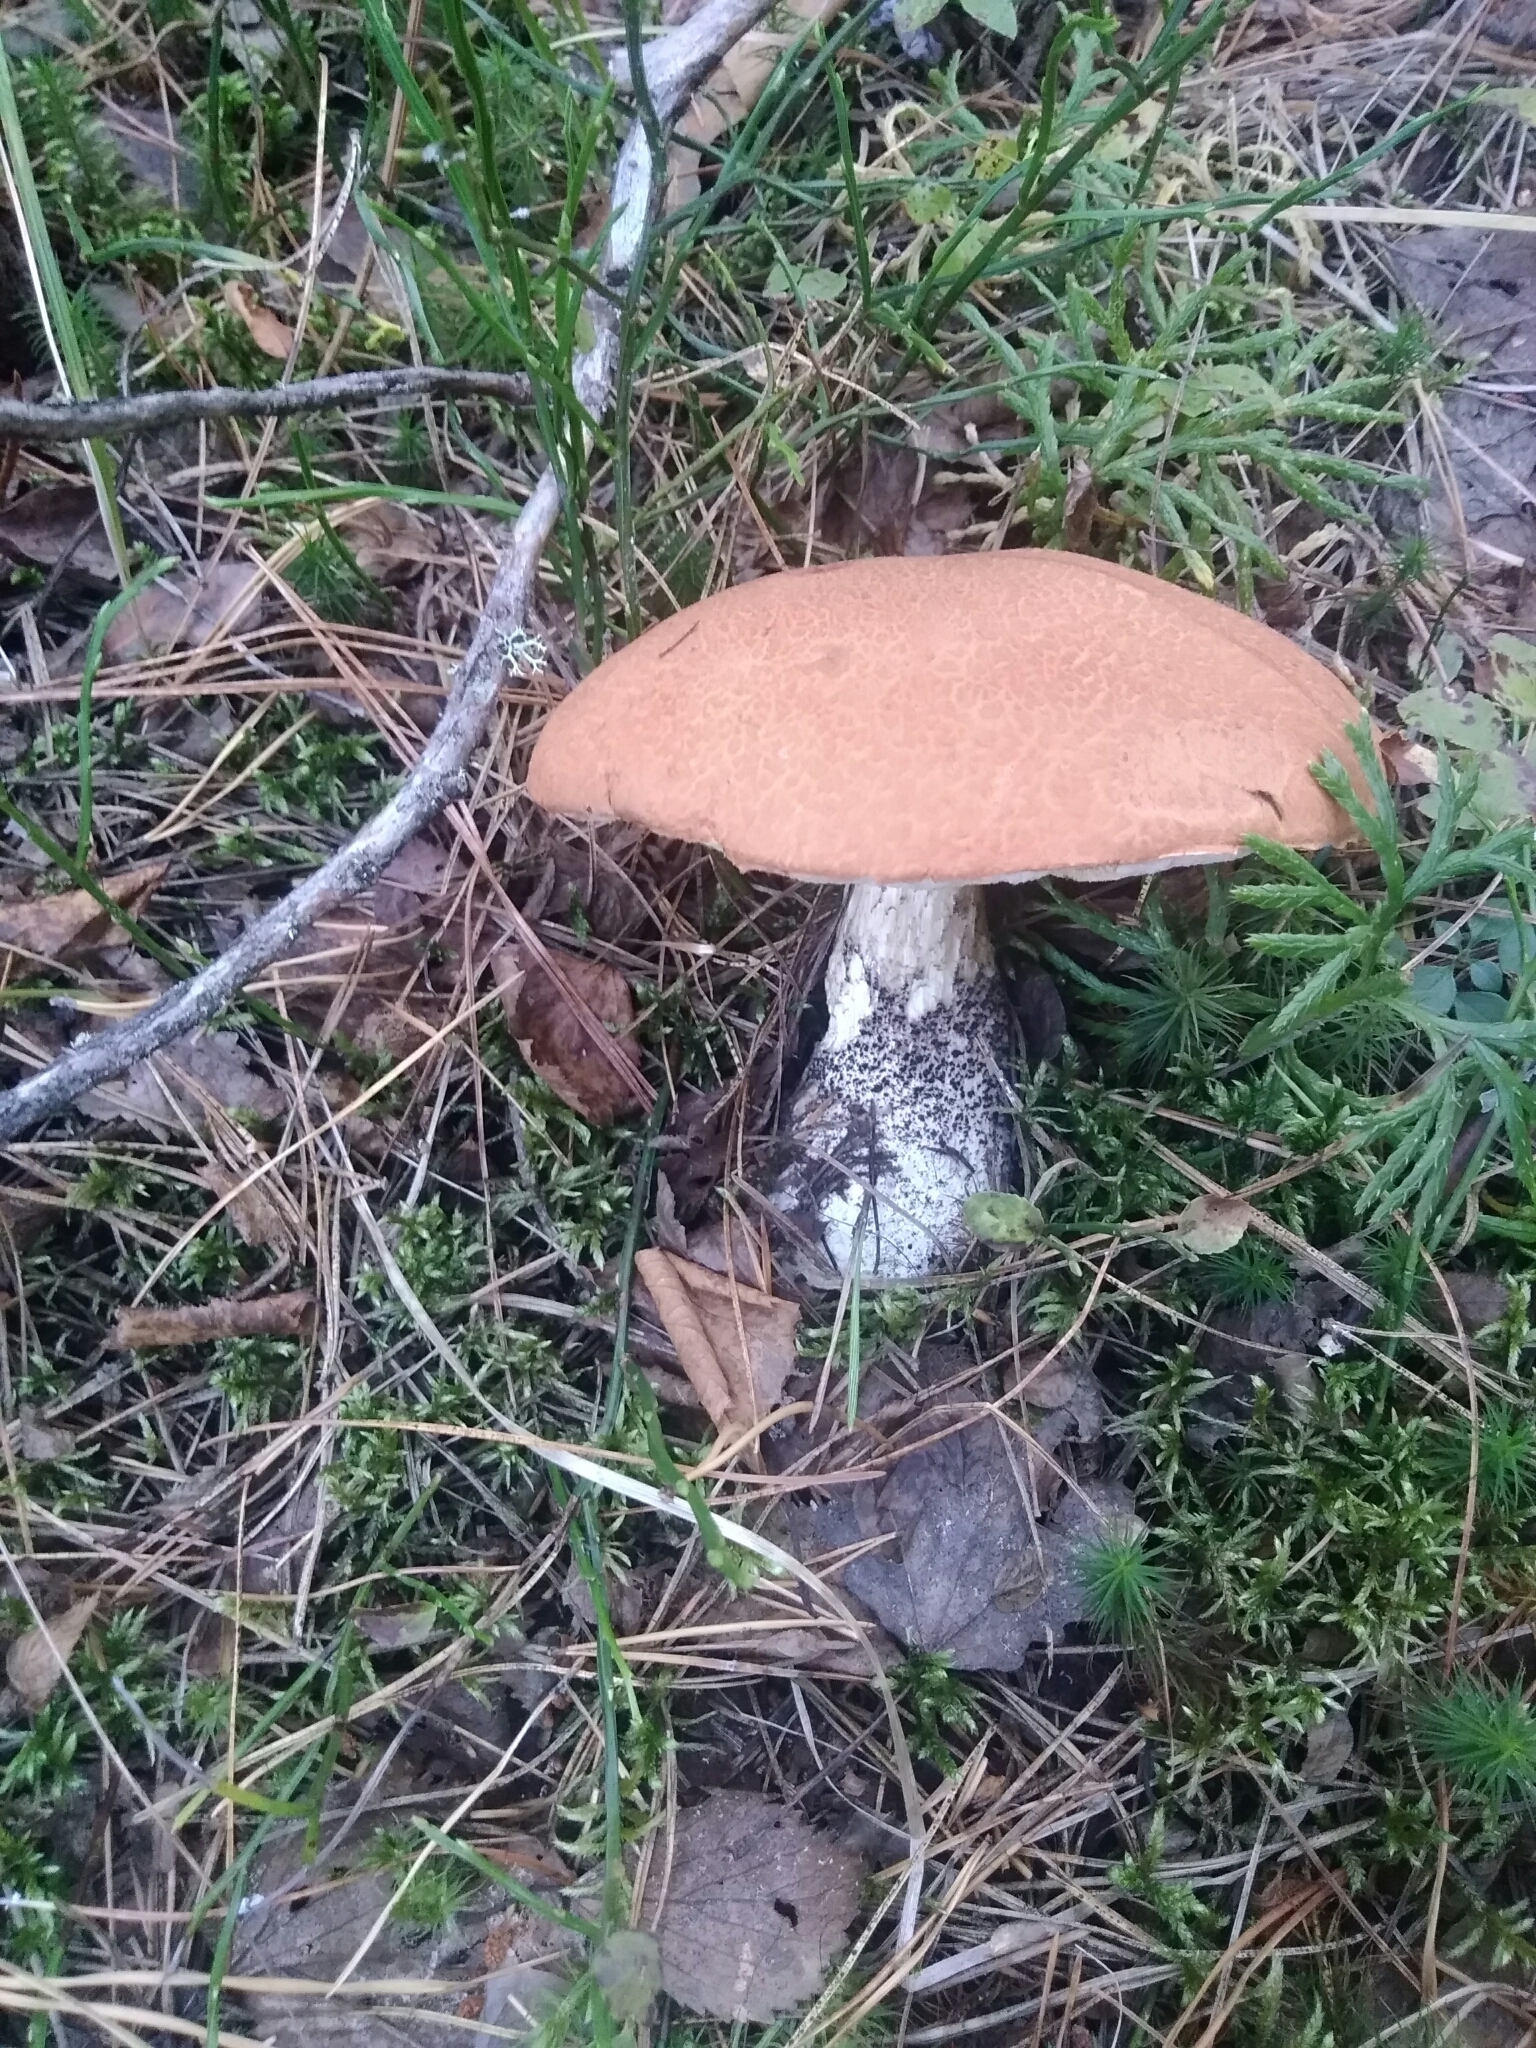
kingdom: Fungi
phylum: Basidiomycota
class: Agaricomycetes
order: Boletales
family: Boletaceae
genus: Leccinum
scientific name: Leccinum versipelle
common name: Orange birch bolete
